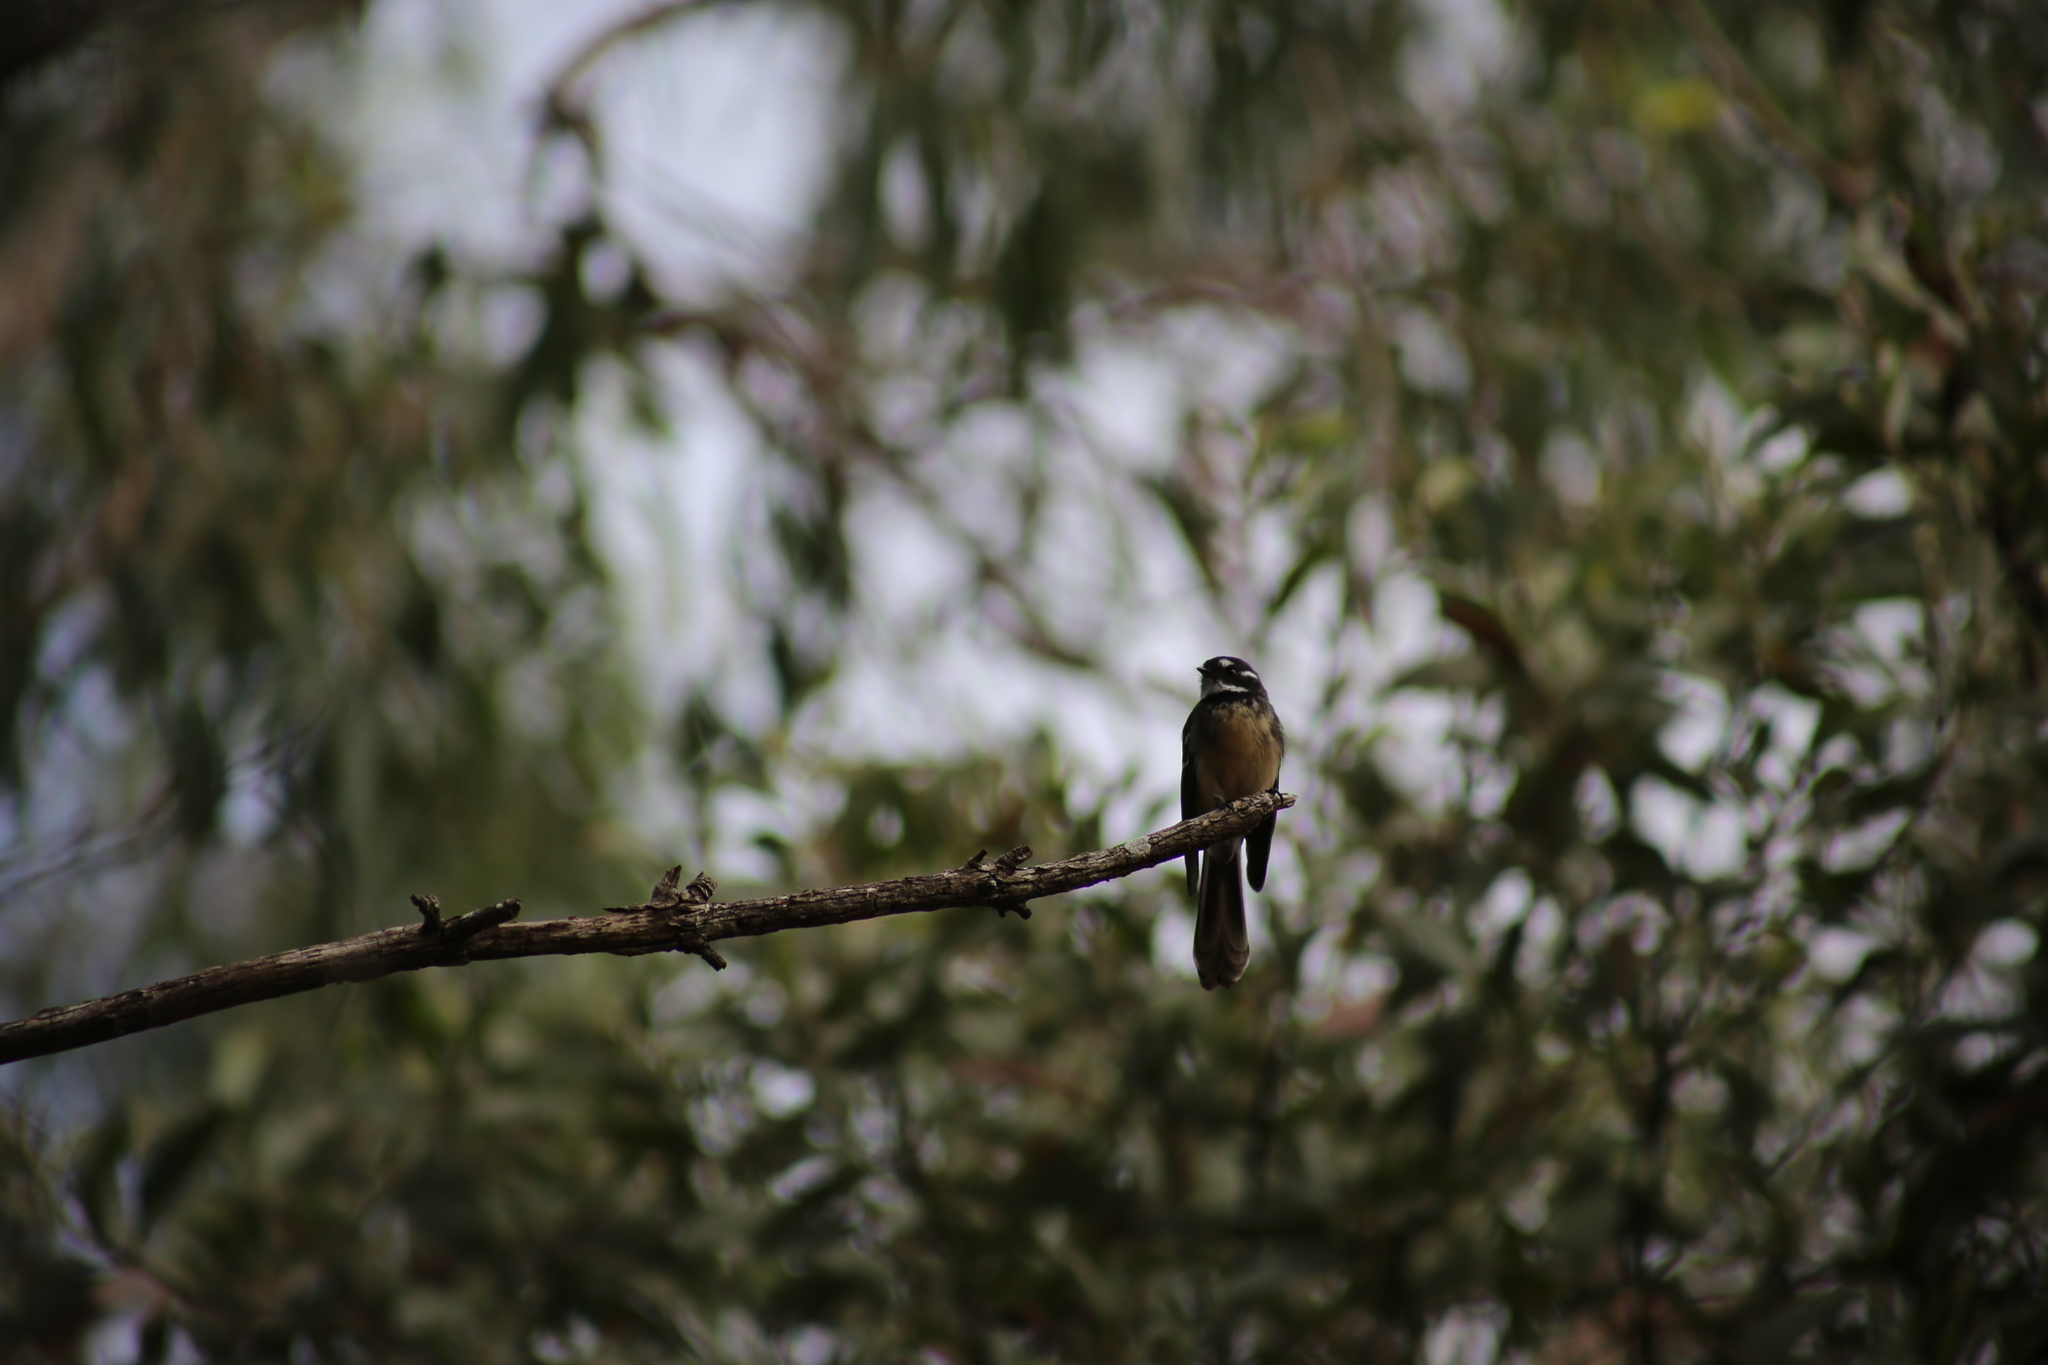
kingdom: Animalia
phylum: Chordata
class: Aves
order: Passeriformes
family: Rhipiduridae
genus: Rhipidura
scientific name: Rhipidura albiscapa
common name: Grey fantail
